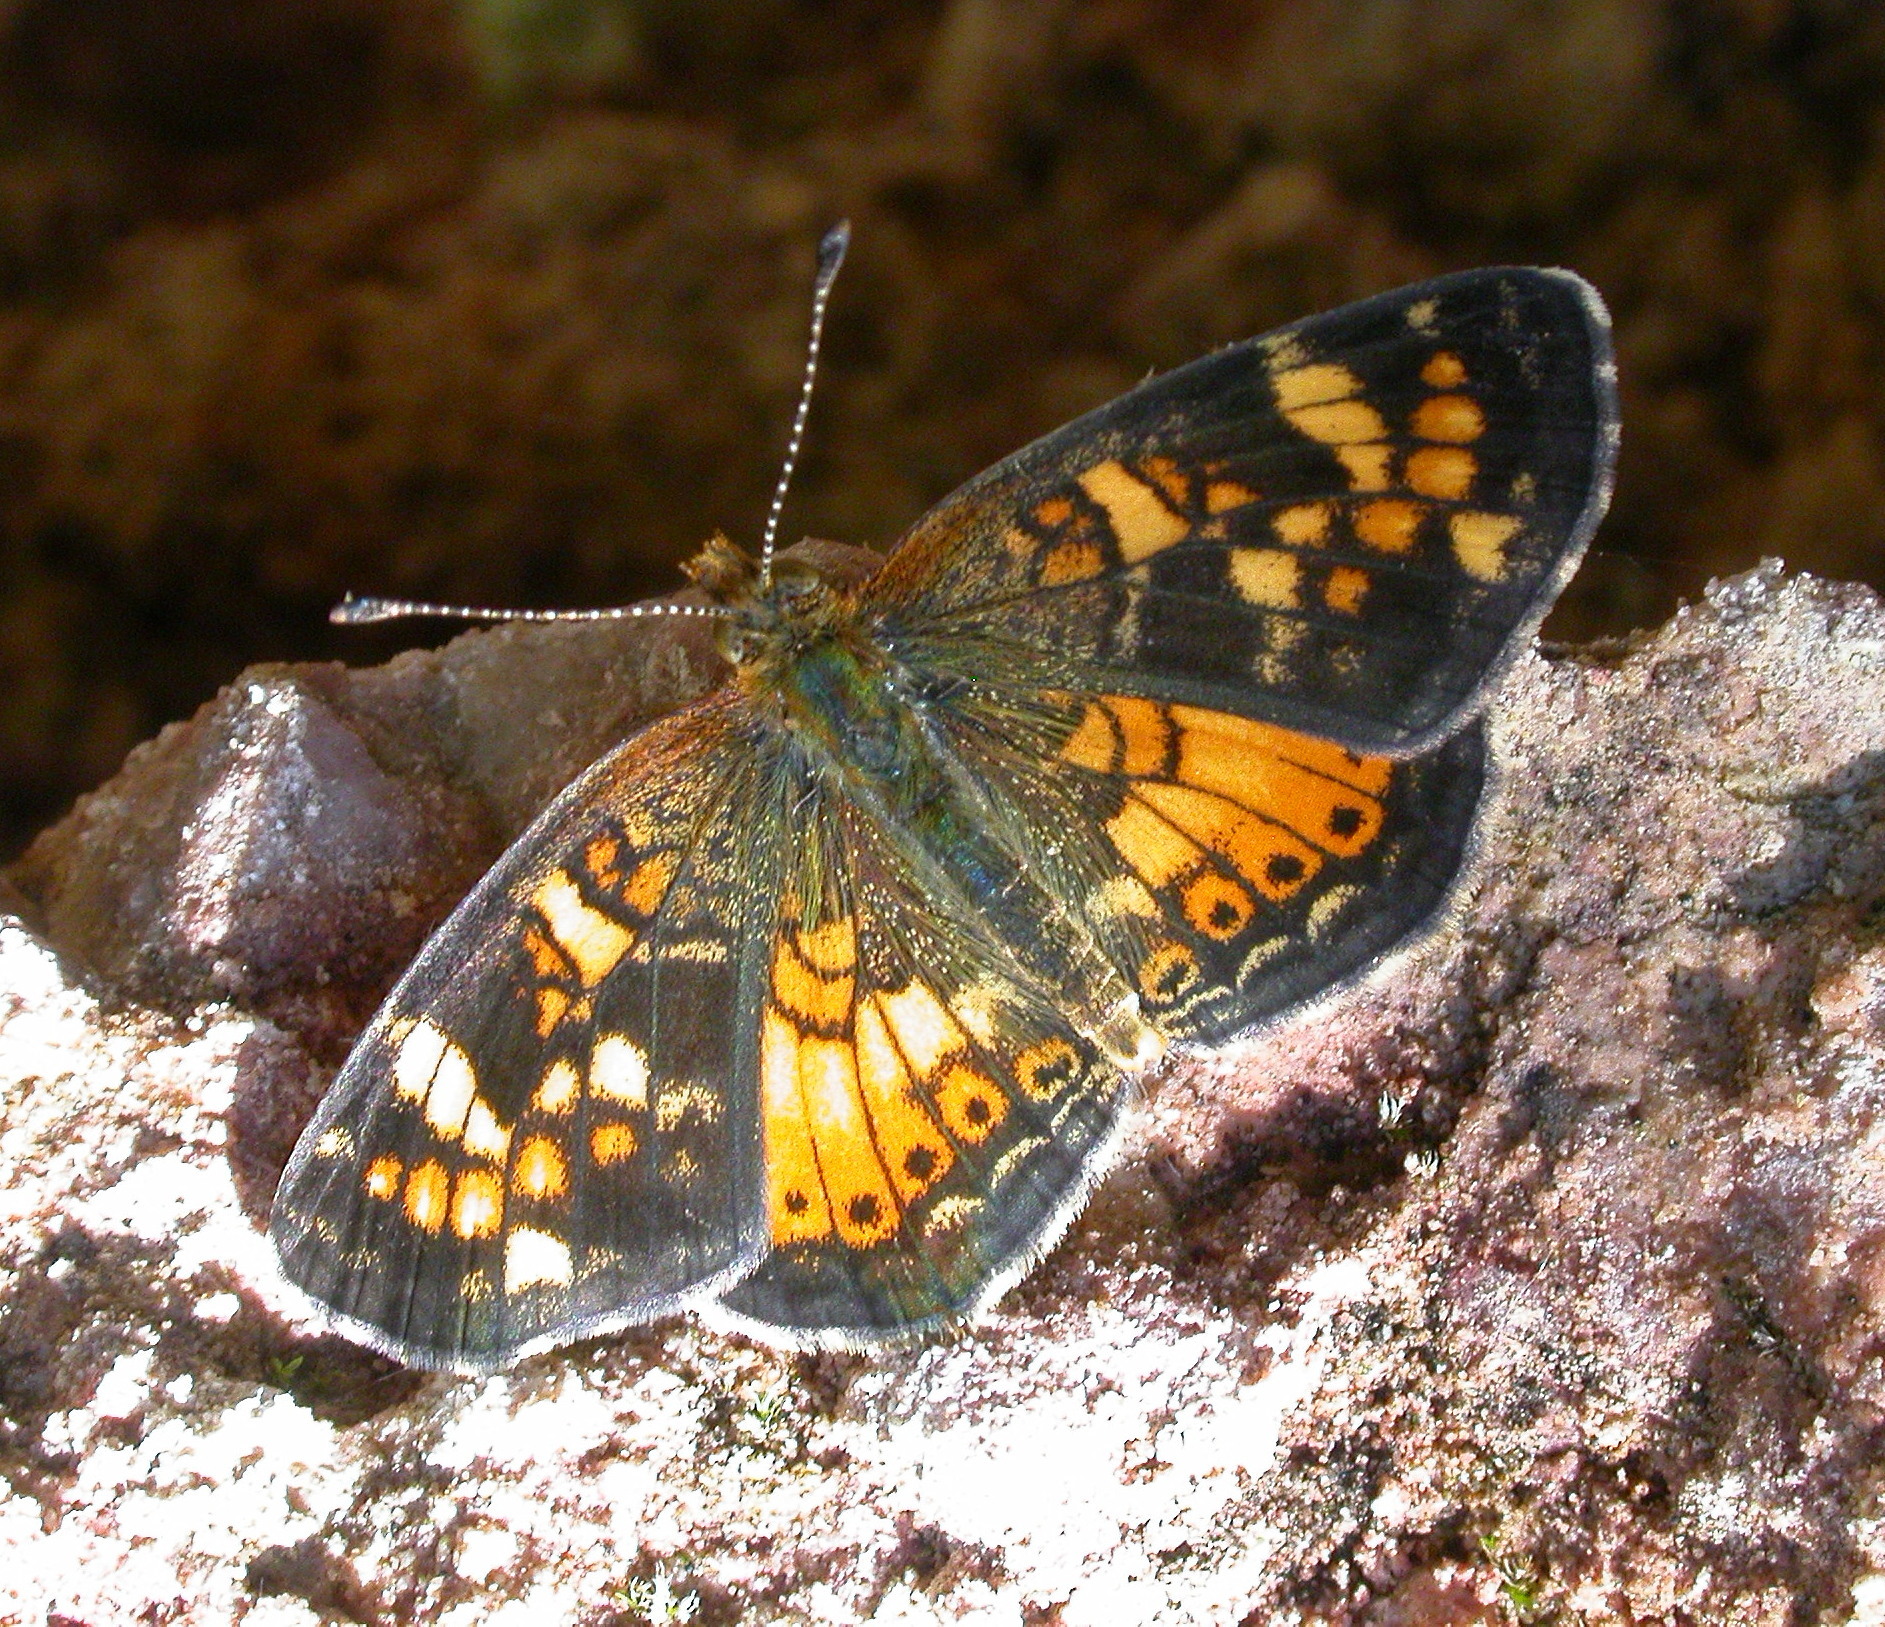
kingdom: Animalia
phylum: Arthropoda
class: Insecta
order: Lepidoptera
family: Nymphalidae
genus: Phyciodes
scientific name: Phyciodes batesii
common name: Tawny crescent
